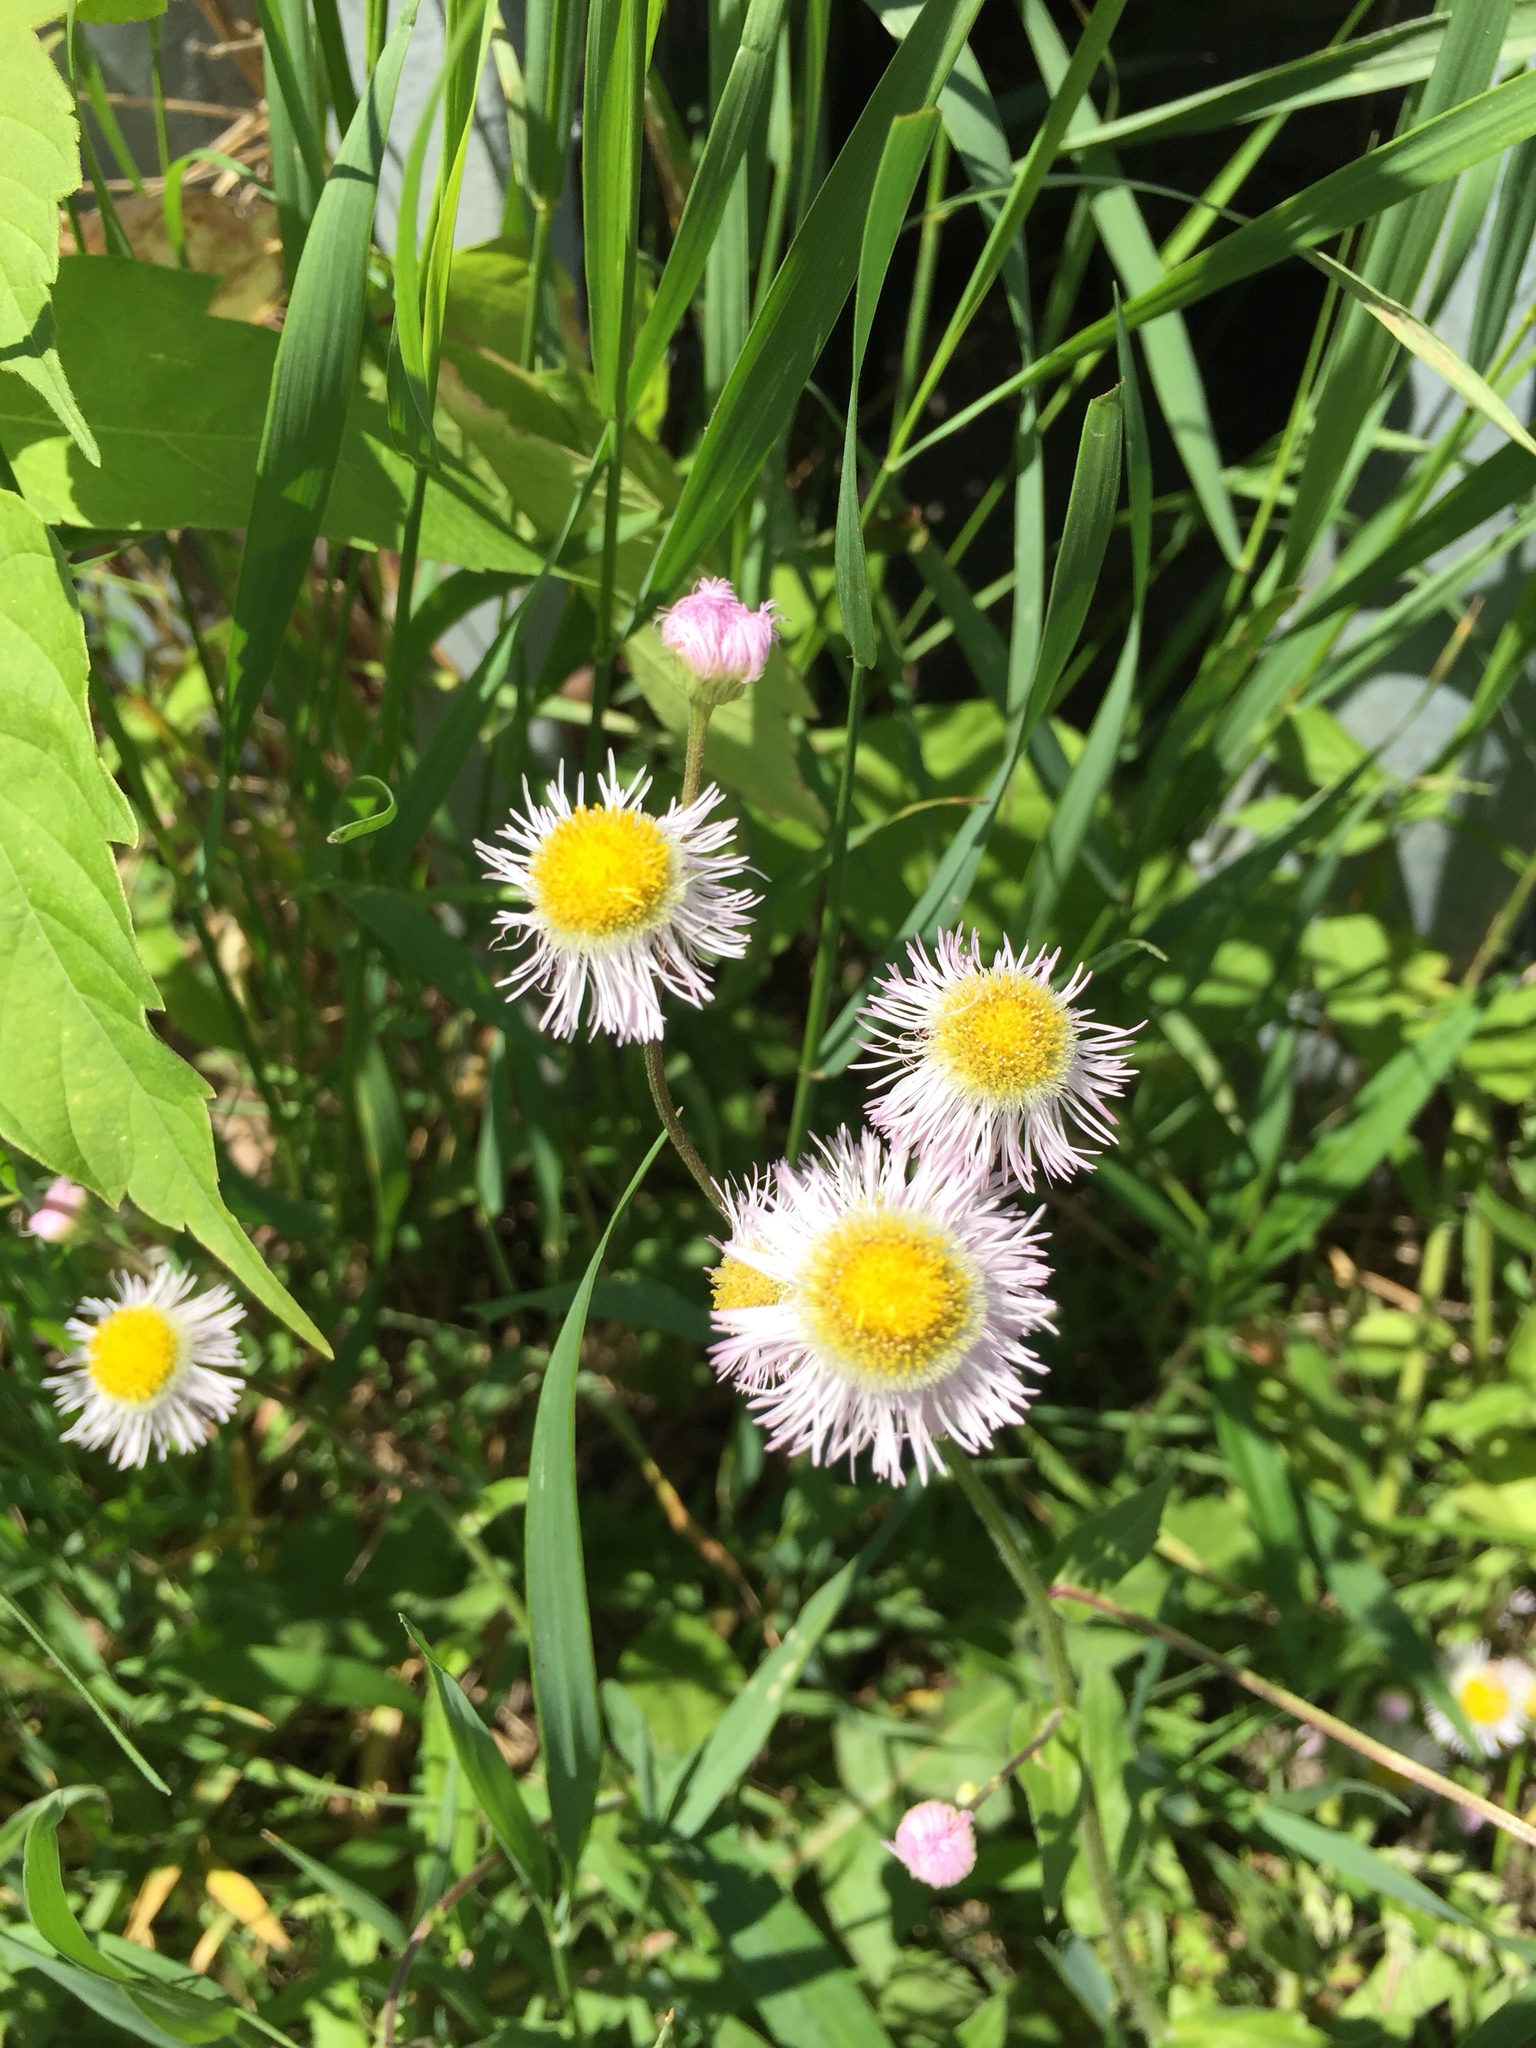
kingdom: Plantae
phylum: Tracheophyta
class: Magnoliopsida
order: Asterales
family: Asteraceae
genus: Erigeron
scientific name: Erigeron philadelphicus
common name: Robin's-plantain
